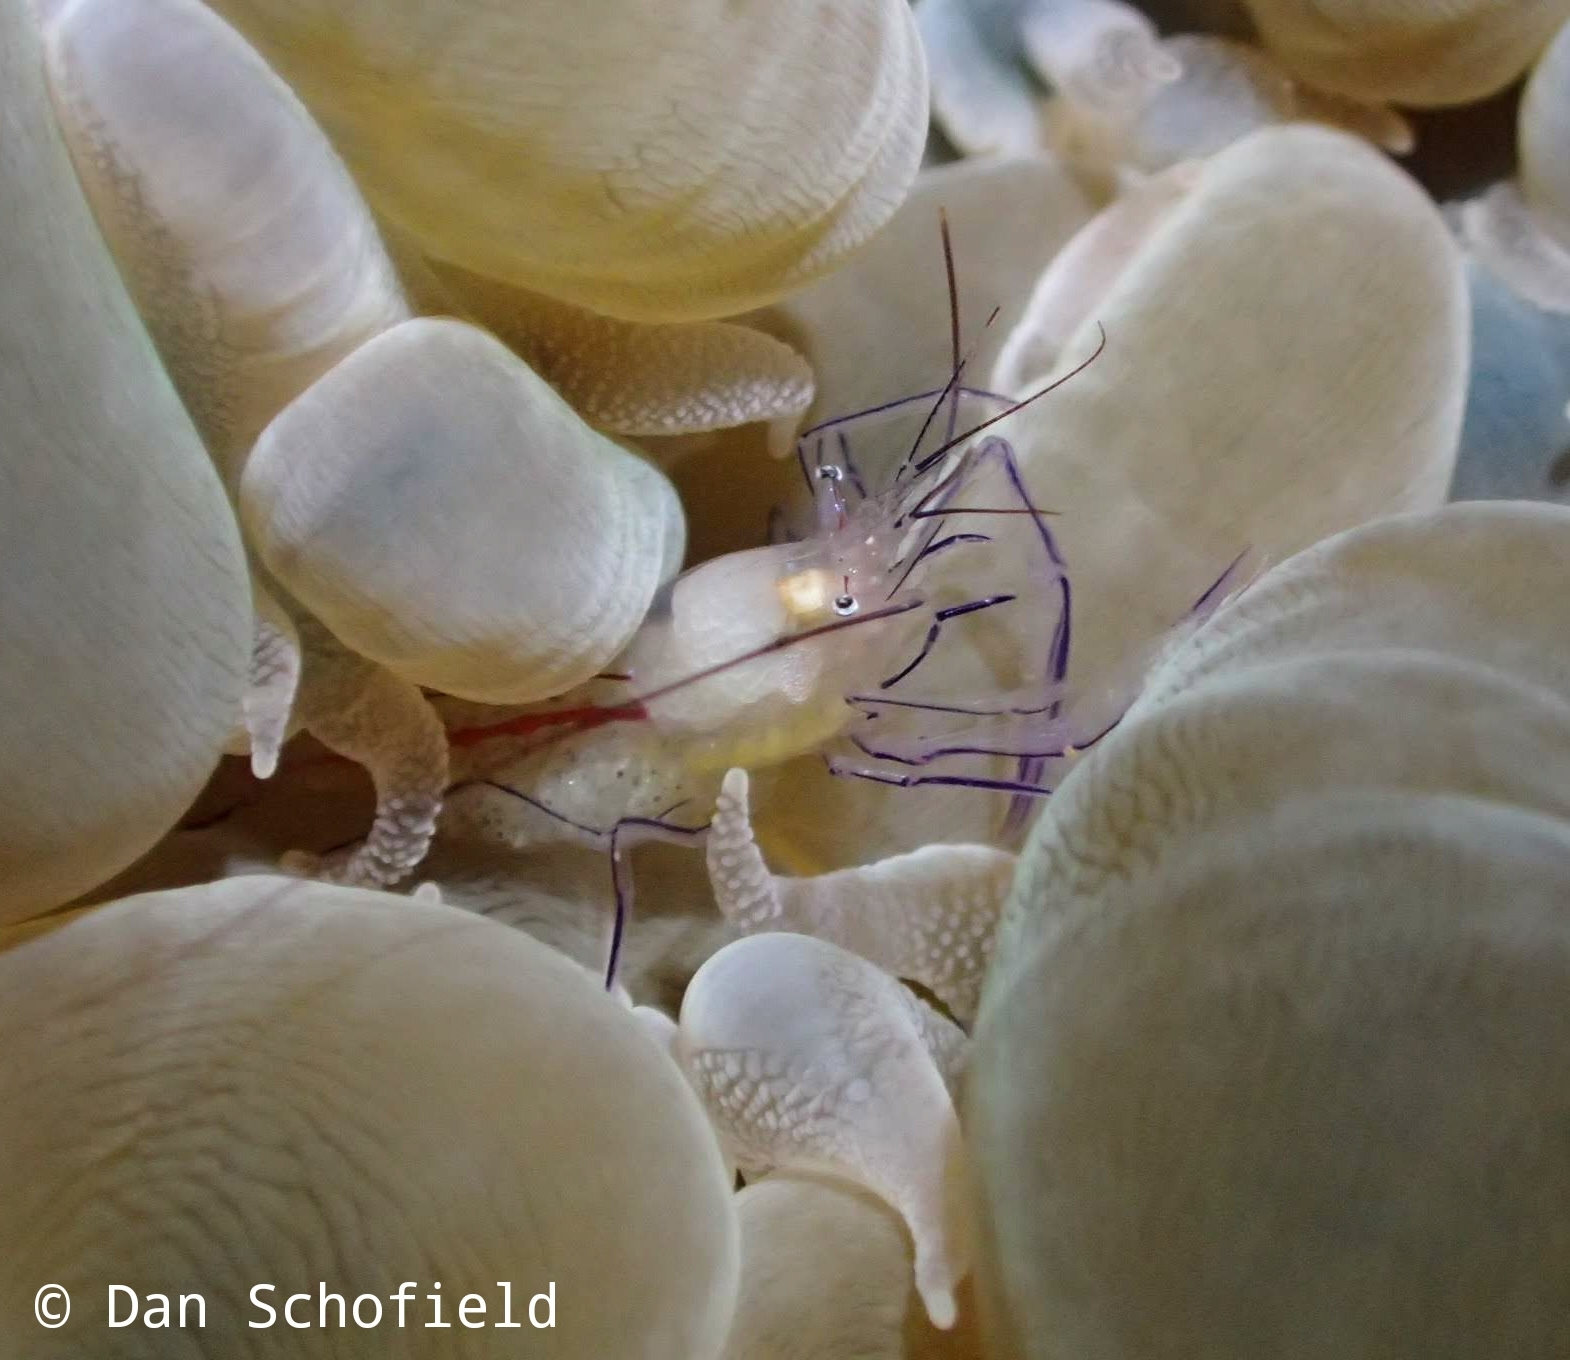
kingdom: Animalia
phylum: Arthropoda
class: Malacostraca
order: Decapoda
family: Palaemonidae
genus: Vir
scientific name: Vir philippinensis
